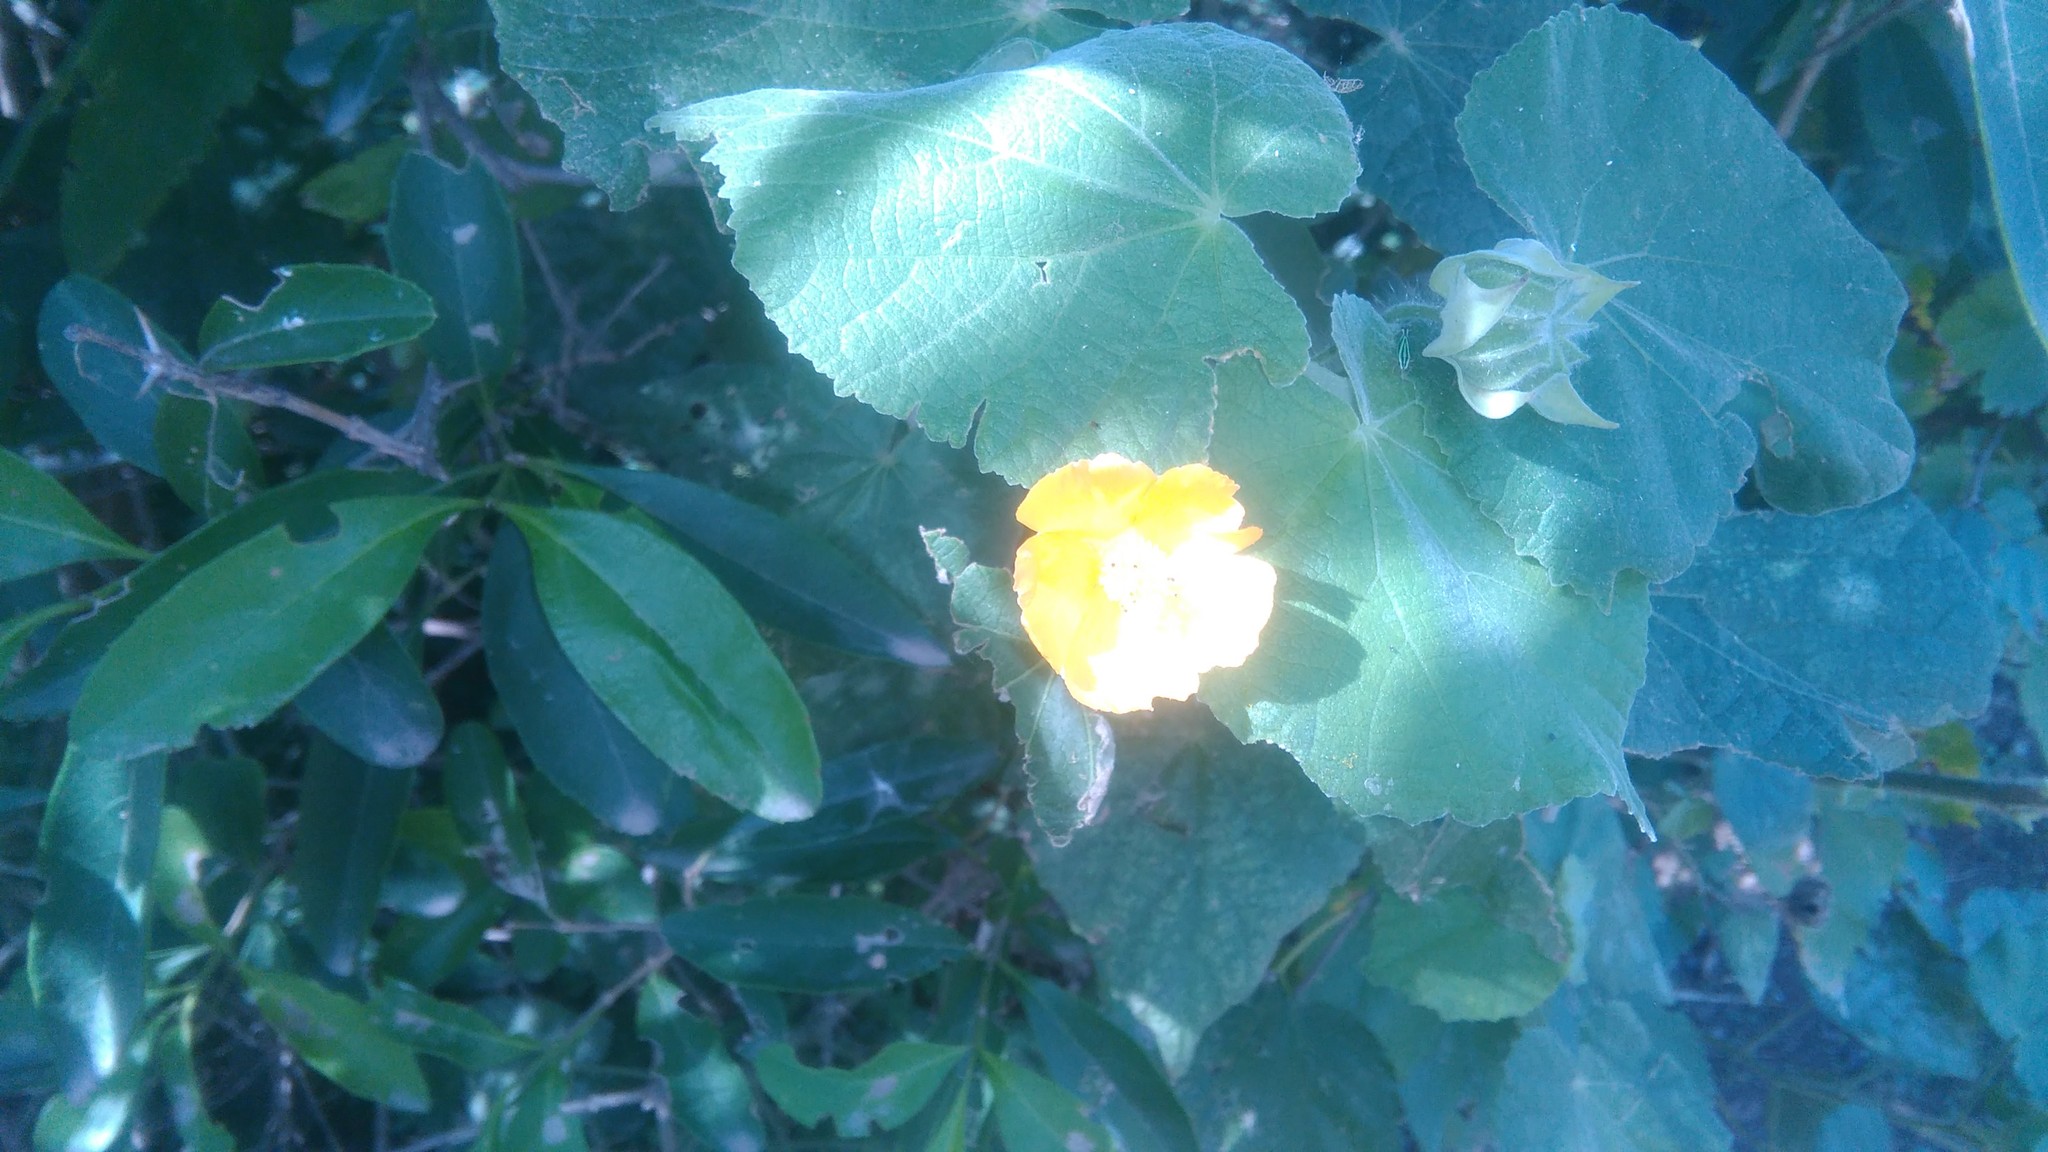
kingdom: Plantae
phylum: Tracheophyta
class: Magnoliopsida
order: Malvales
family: Malvaceae
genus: Abutilon
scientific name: Abutilon grandifolium
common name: Hairy abutilon
